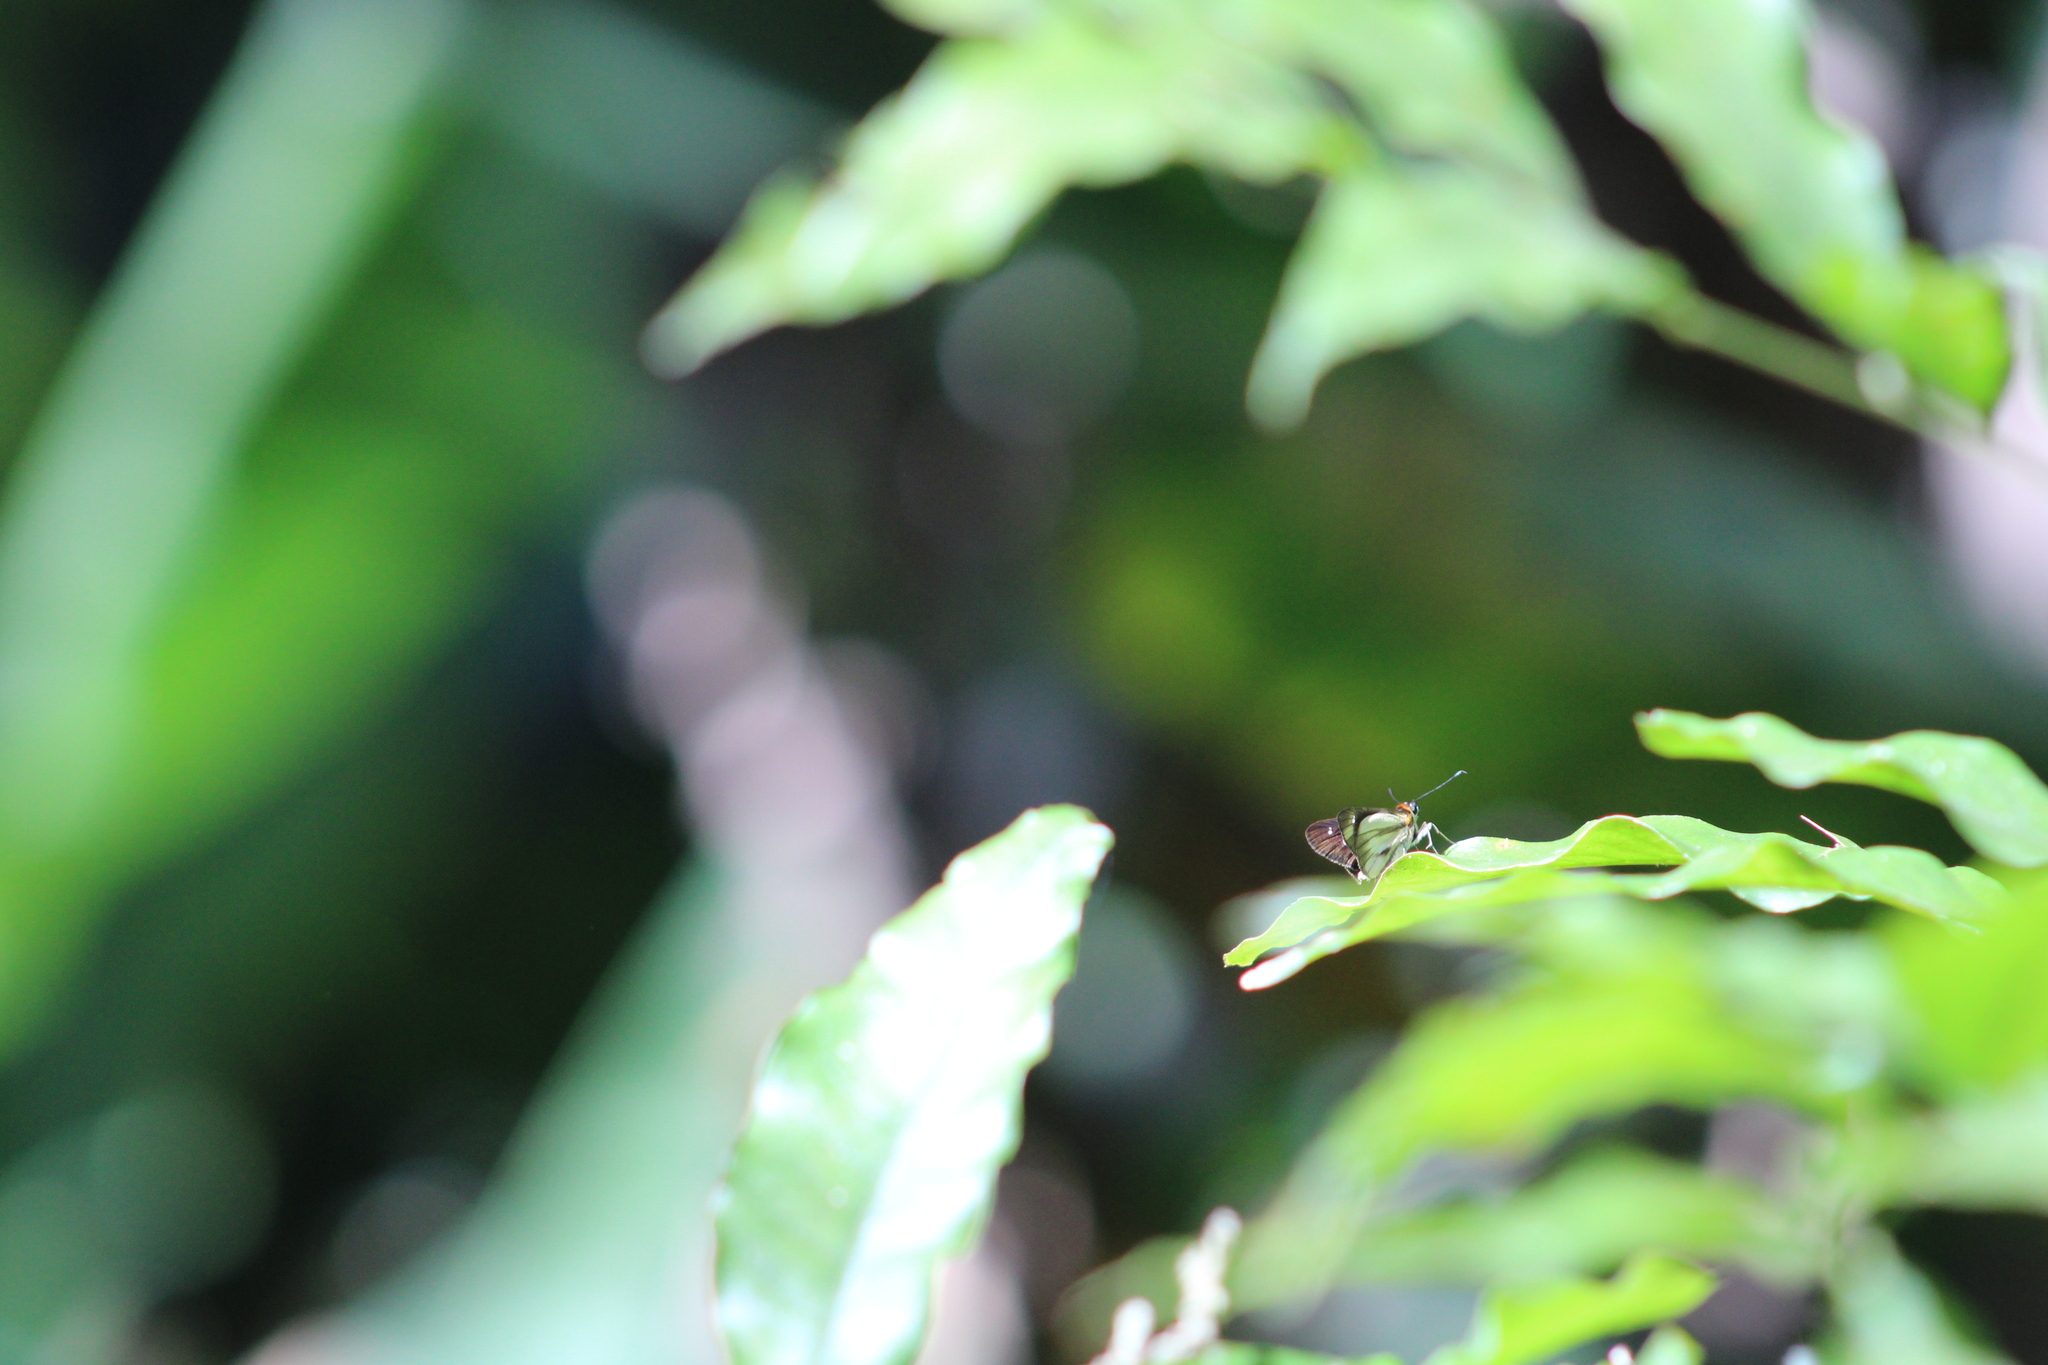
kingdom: Animalia
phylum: Arthropoda
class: Insecta
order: Lepidoptera
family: Hesperiidae
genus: Troyus
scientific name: Troyus
